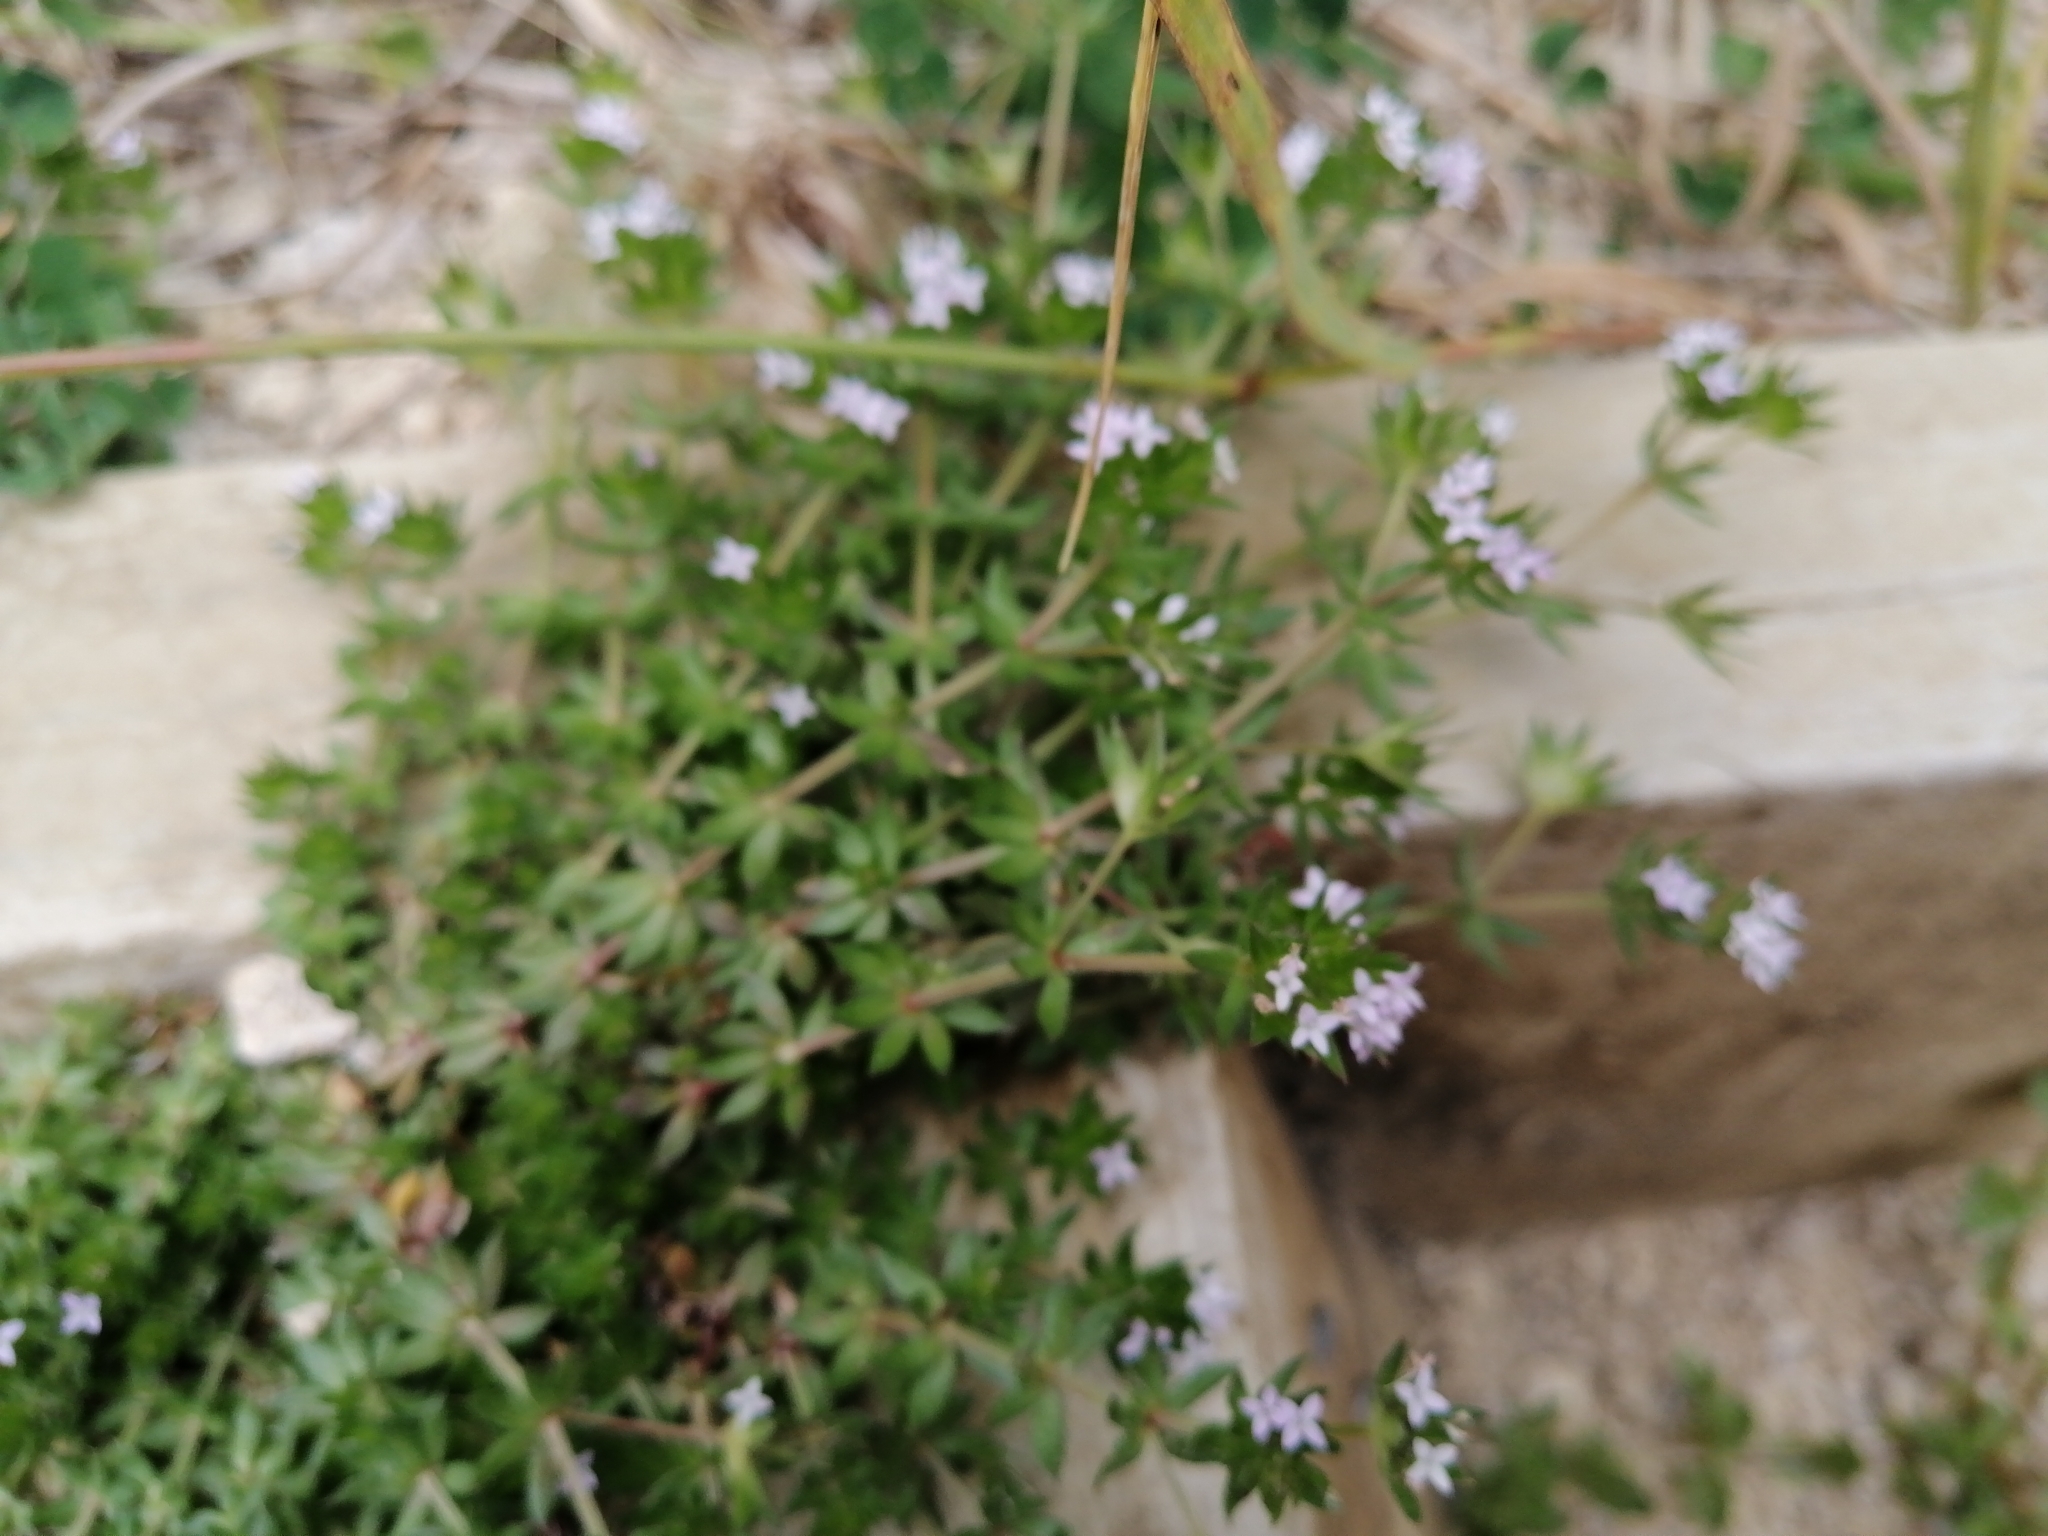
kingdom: Plantae
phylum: Tracheophyta
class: Magnoliopsida
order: Gentianales
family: Rubiaceae
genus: Sherardia
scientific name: Sherardia arvensis
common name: Field madder
